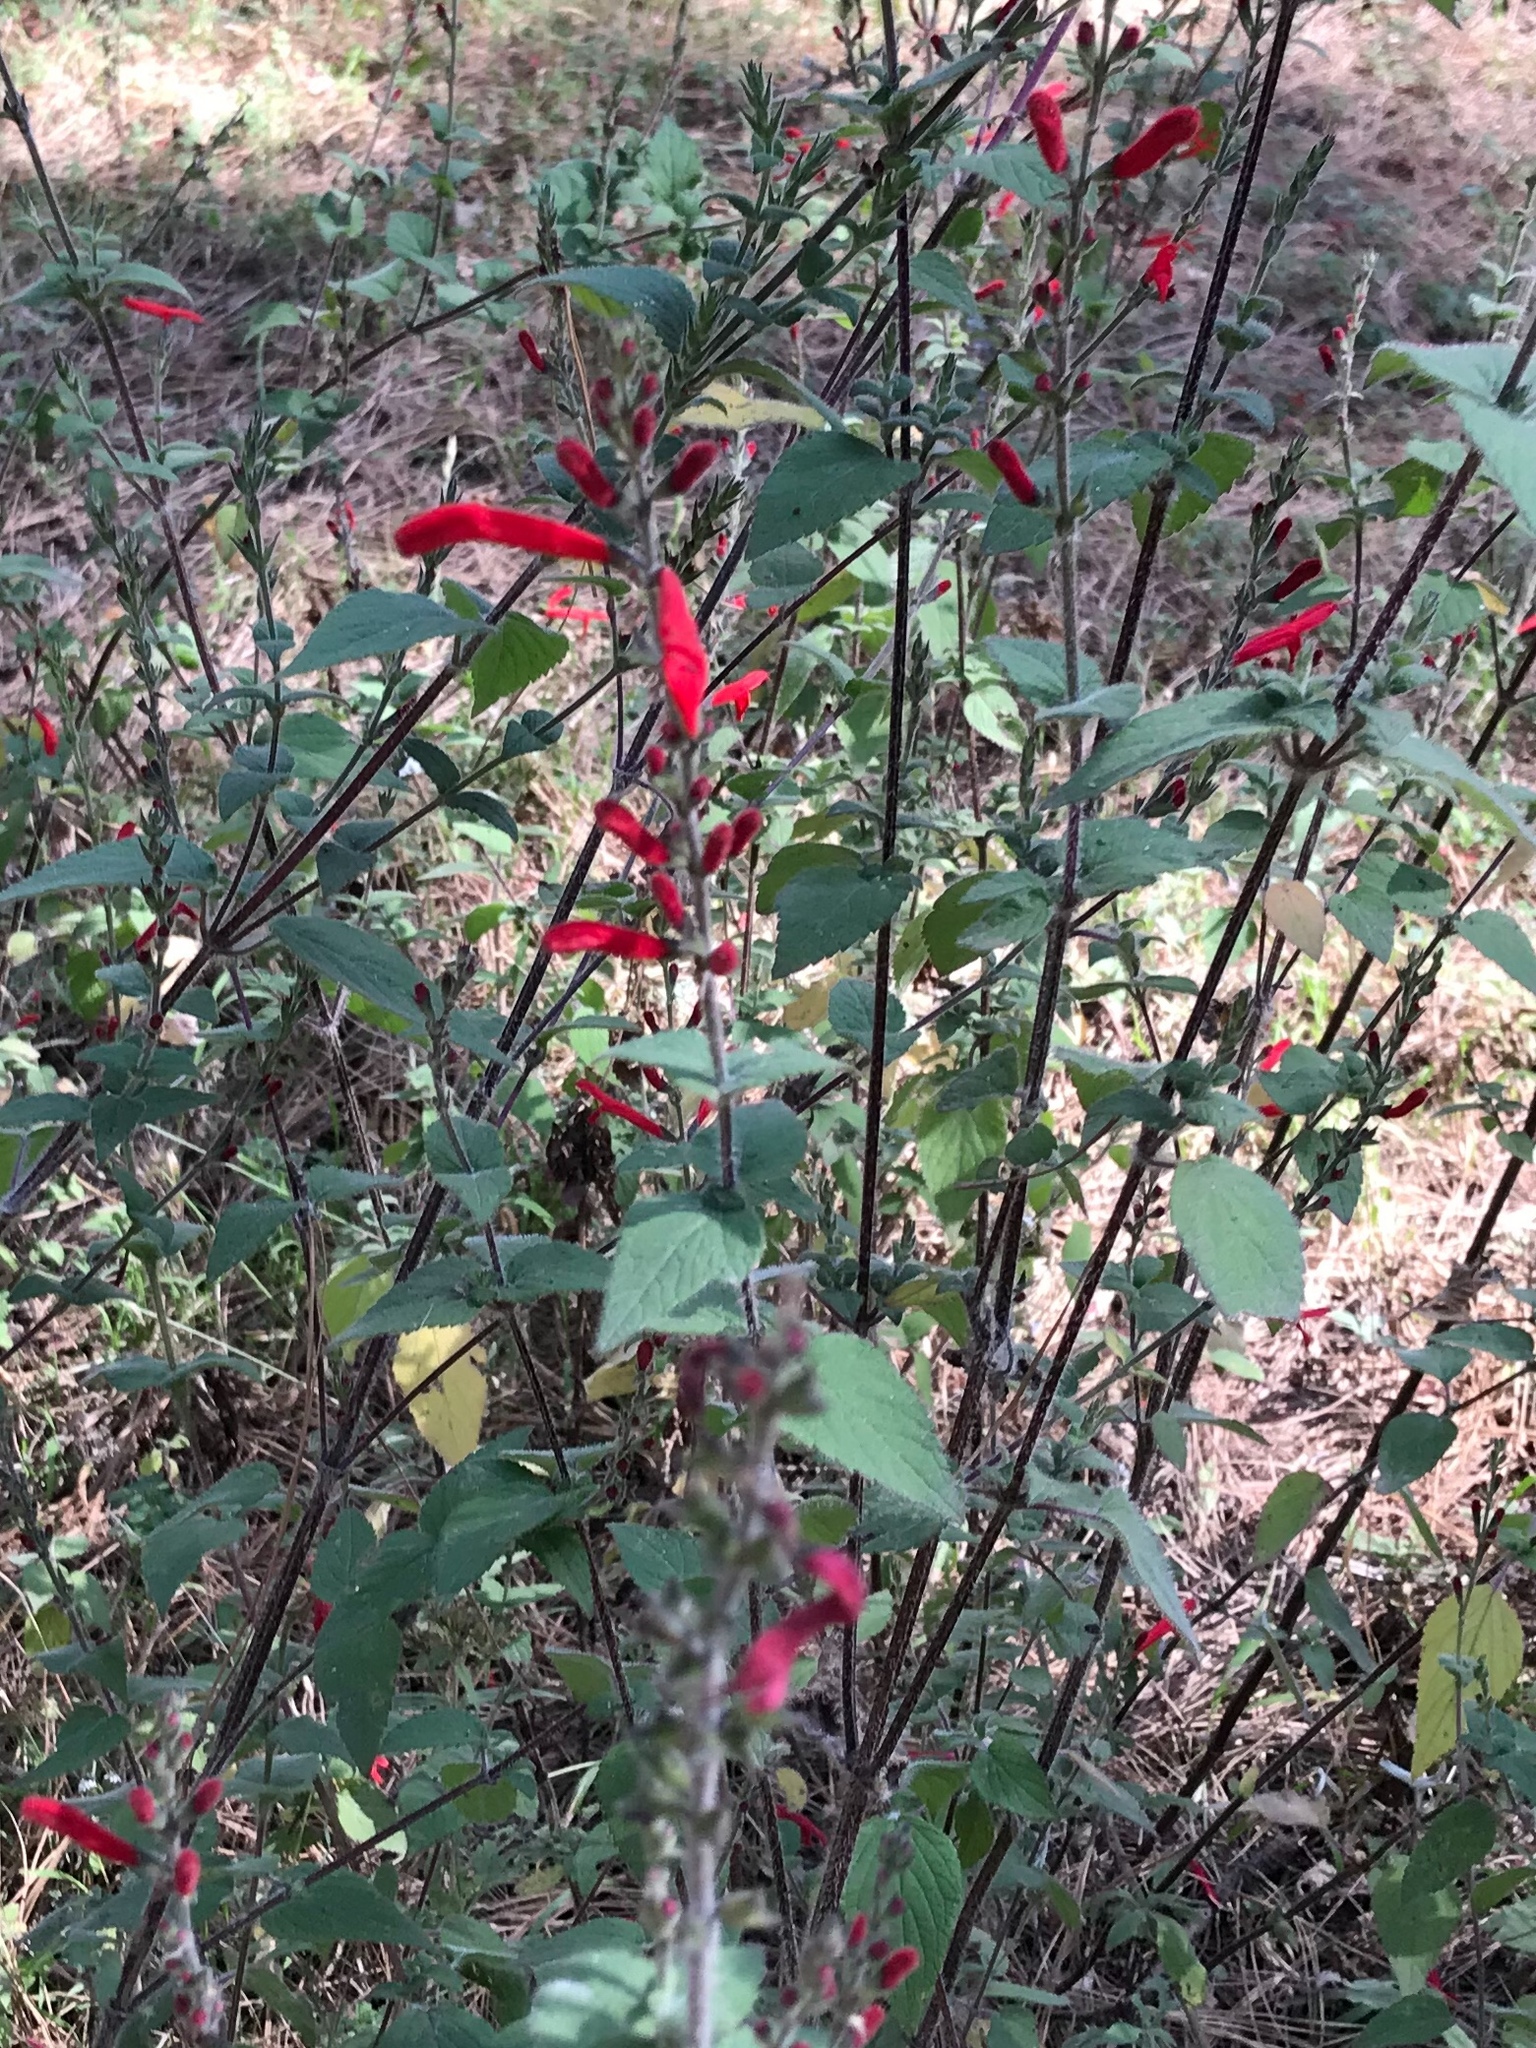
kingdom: Plantae
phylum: Tracheophyta
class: Magnoliopsida
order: Lamiales
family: Lamiaceae
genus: Salvia
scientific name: Salvia elegans
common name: Pineapple sage
